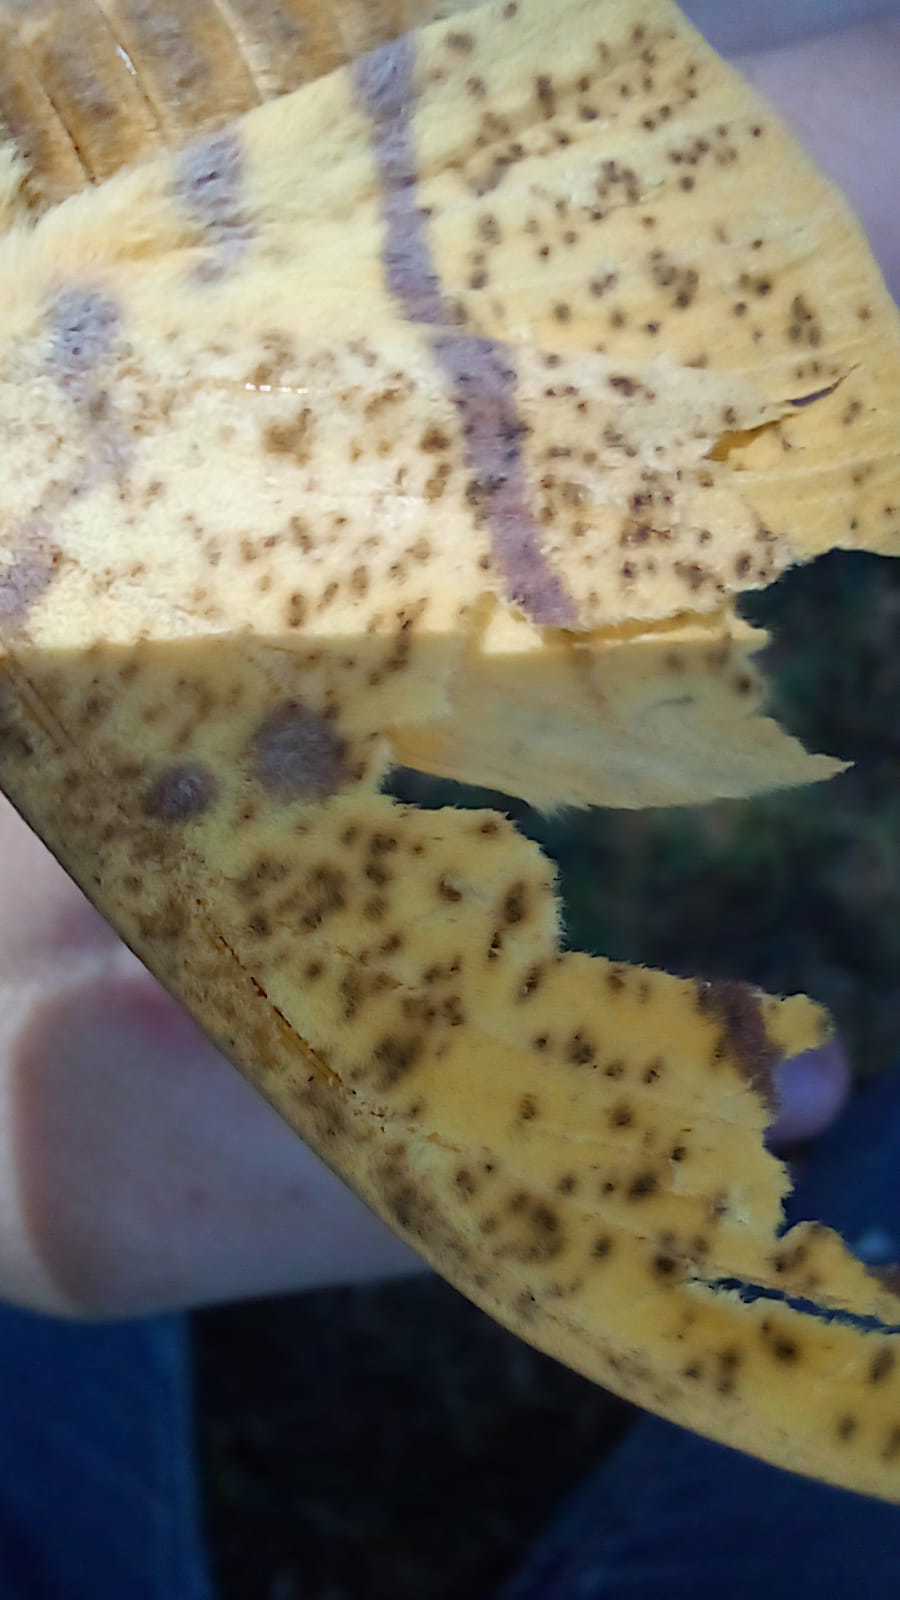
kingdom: Animalia
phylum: Arthropoda
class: Insecta
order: Lepidoptera
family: Saturniidae
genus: Eacles
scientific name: Eacles imperialis
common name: Imperial moth
